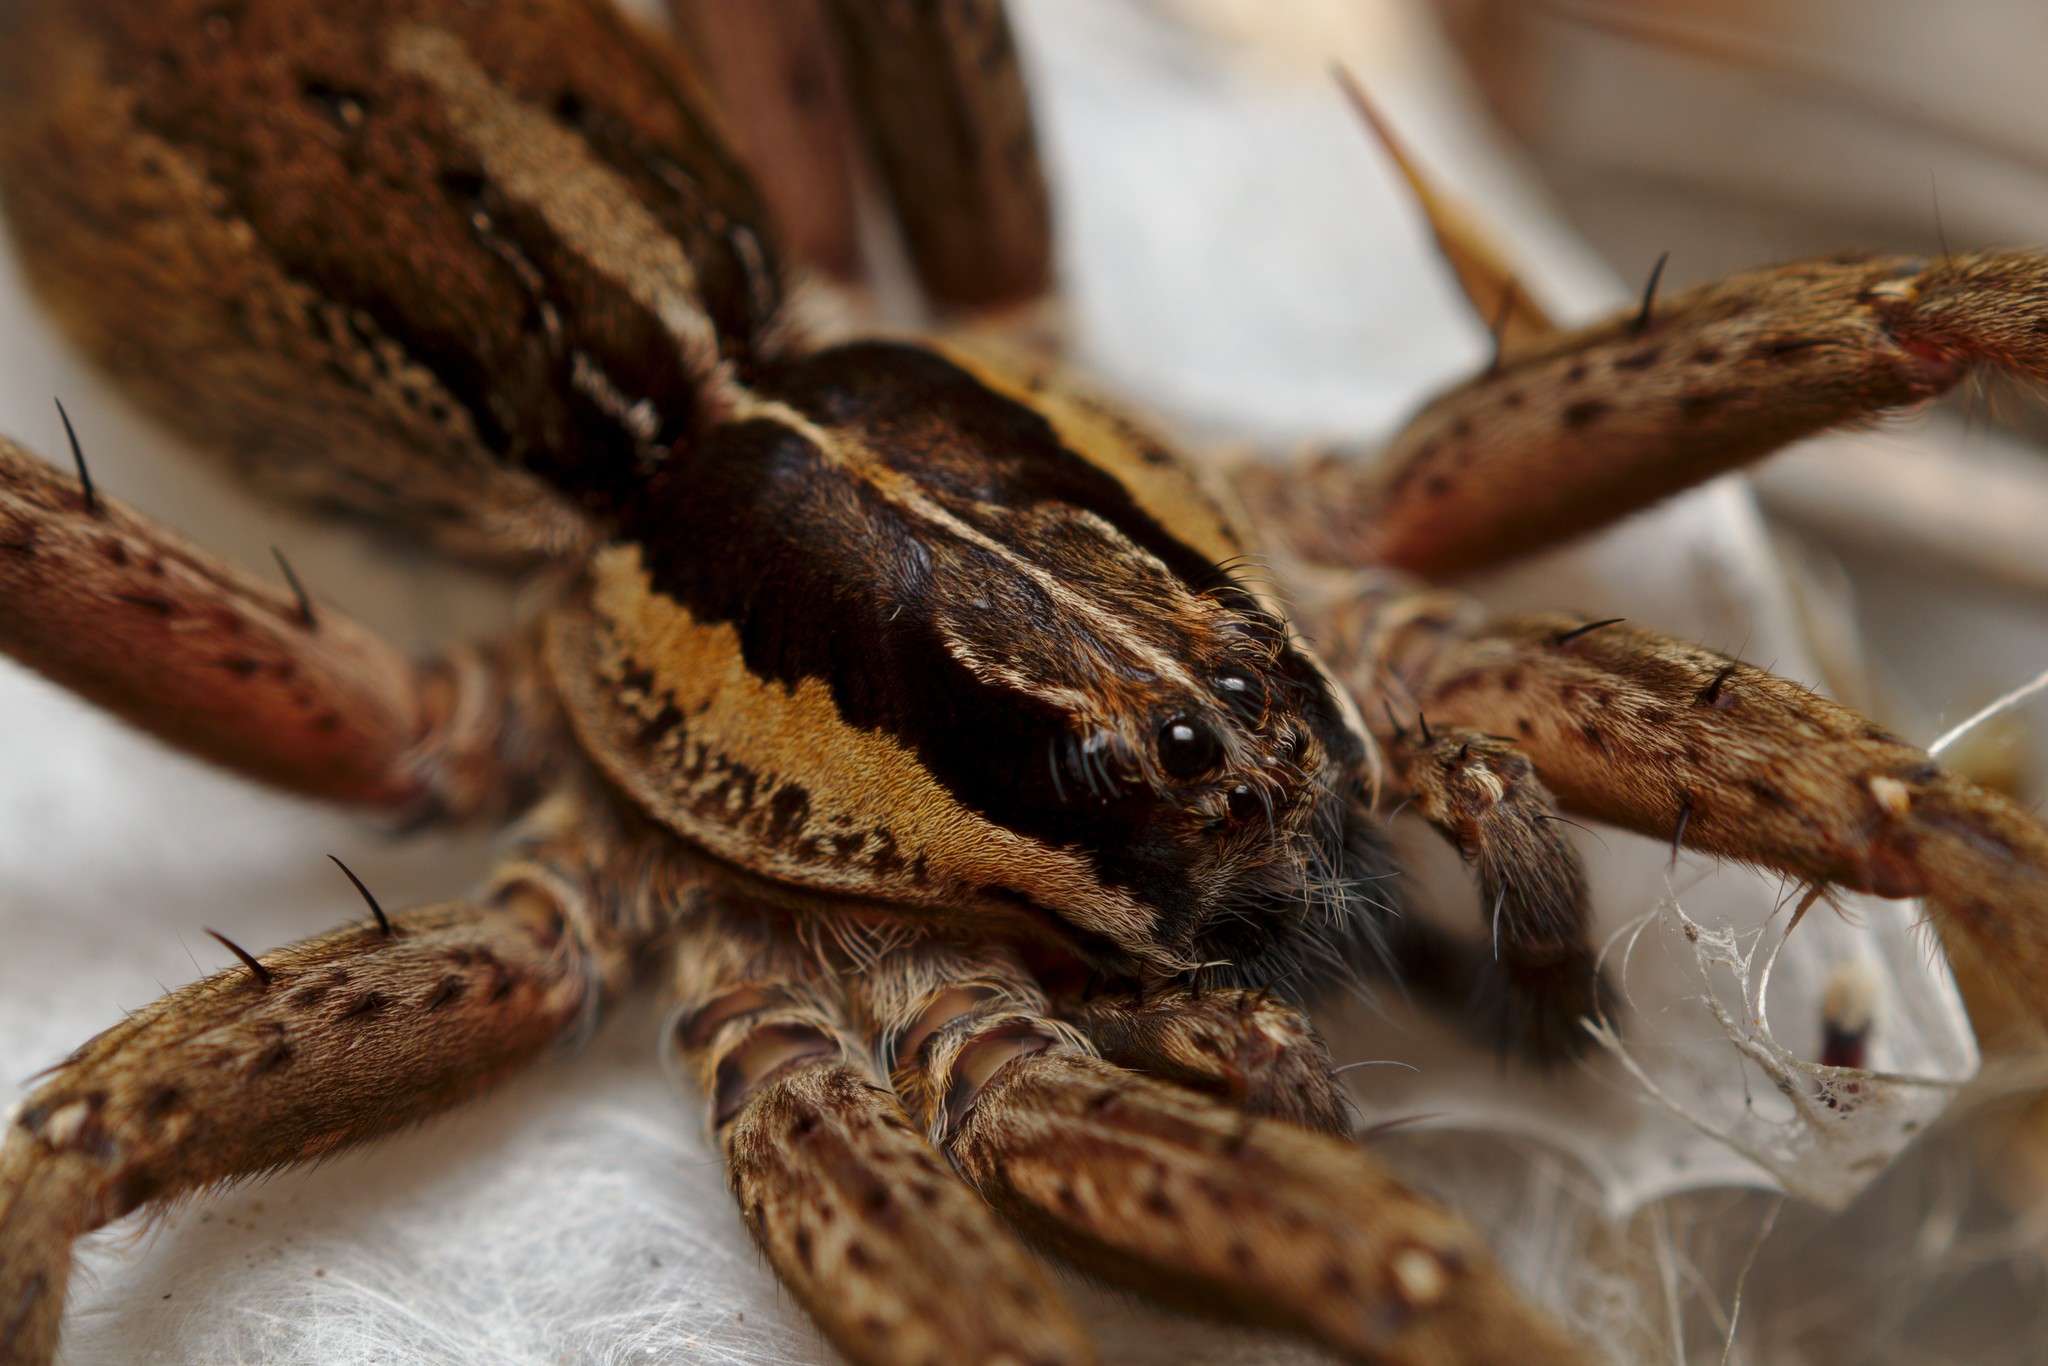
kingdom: Animalia
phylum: Arthropoda
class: Arachnida
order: Araneae
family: Pisauridae
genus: Dolomedes
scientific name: Dolomedes minor
